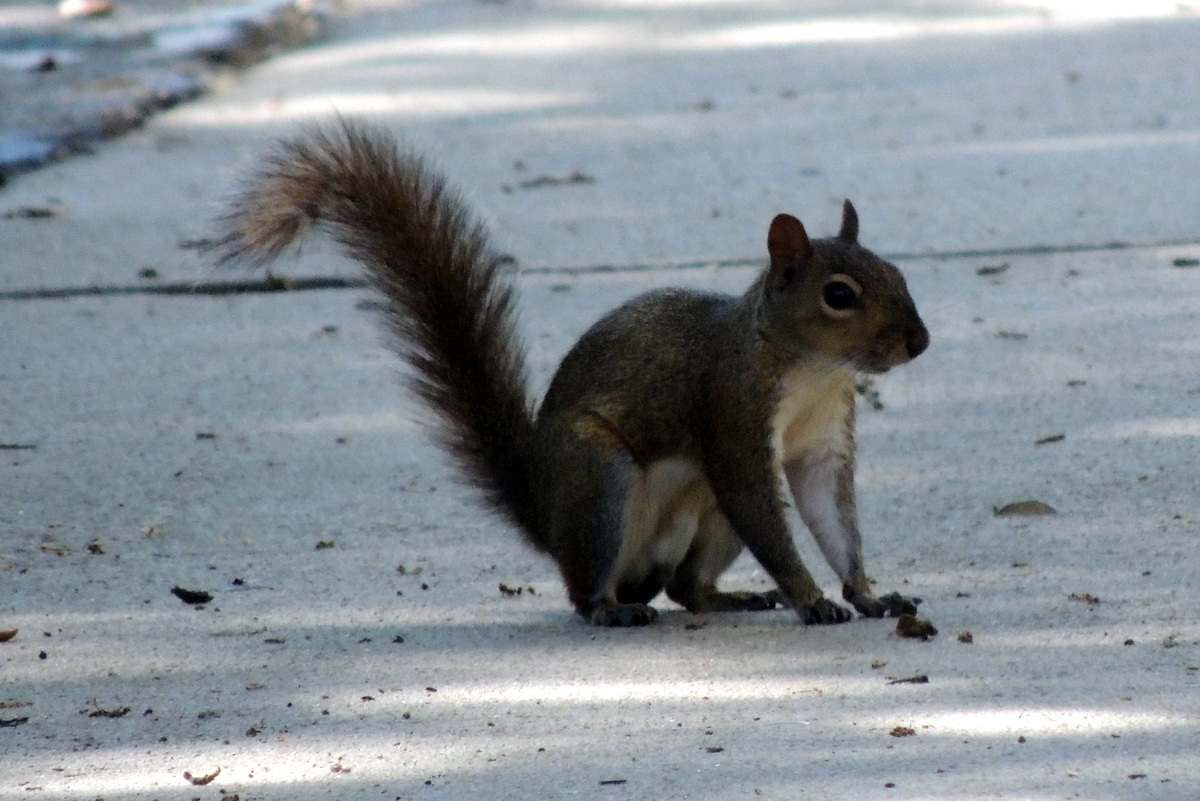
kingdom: Animalia
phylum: Chordata
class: Mammalia
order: Rodentia
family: Sciuridae
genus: Sciurus
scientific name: Sciurus carolinensis
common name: Eastern gray squirrel
